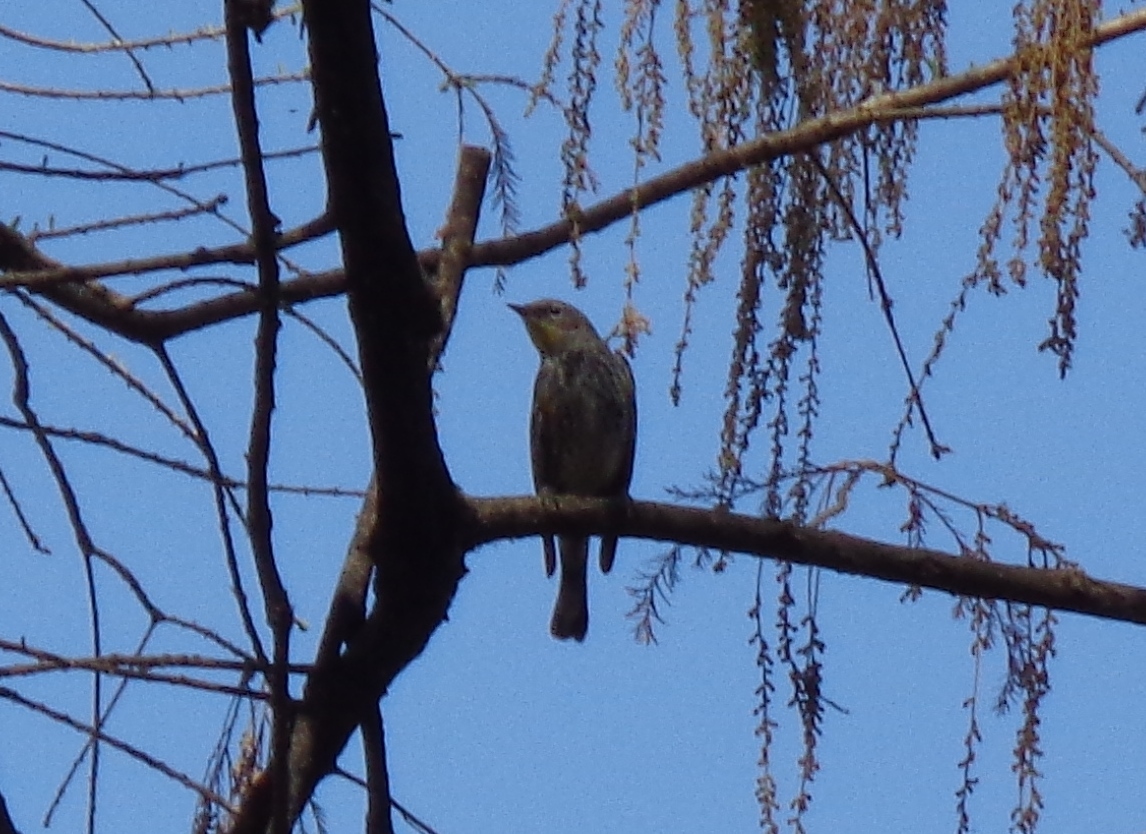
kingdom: Animalia
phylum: Chordata
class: Aves
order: Passeriformes
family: Parulidae
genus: Setophaga
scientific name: Setophaga coronata
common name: Myrtle warbler
